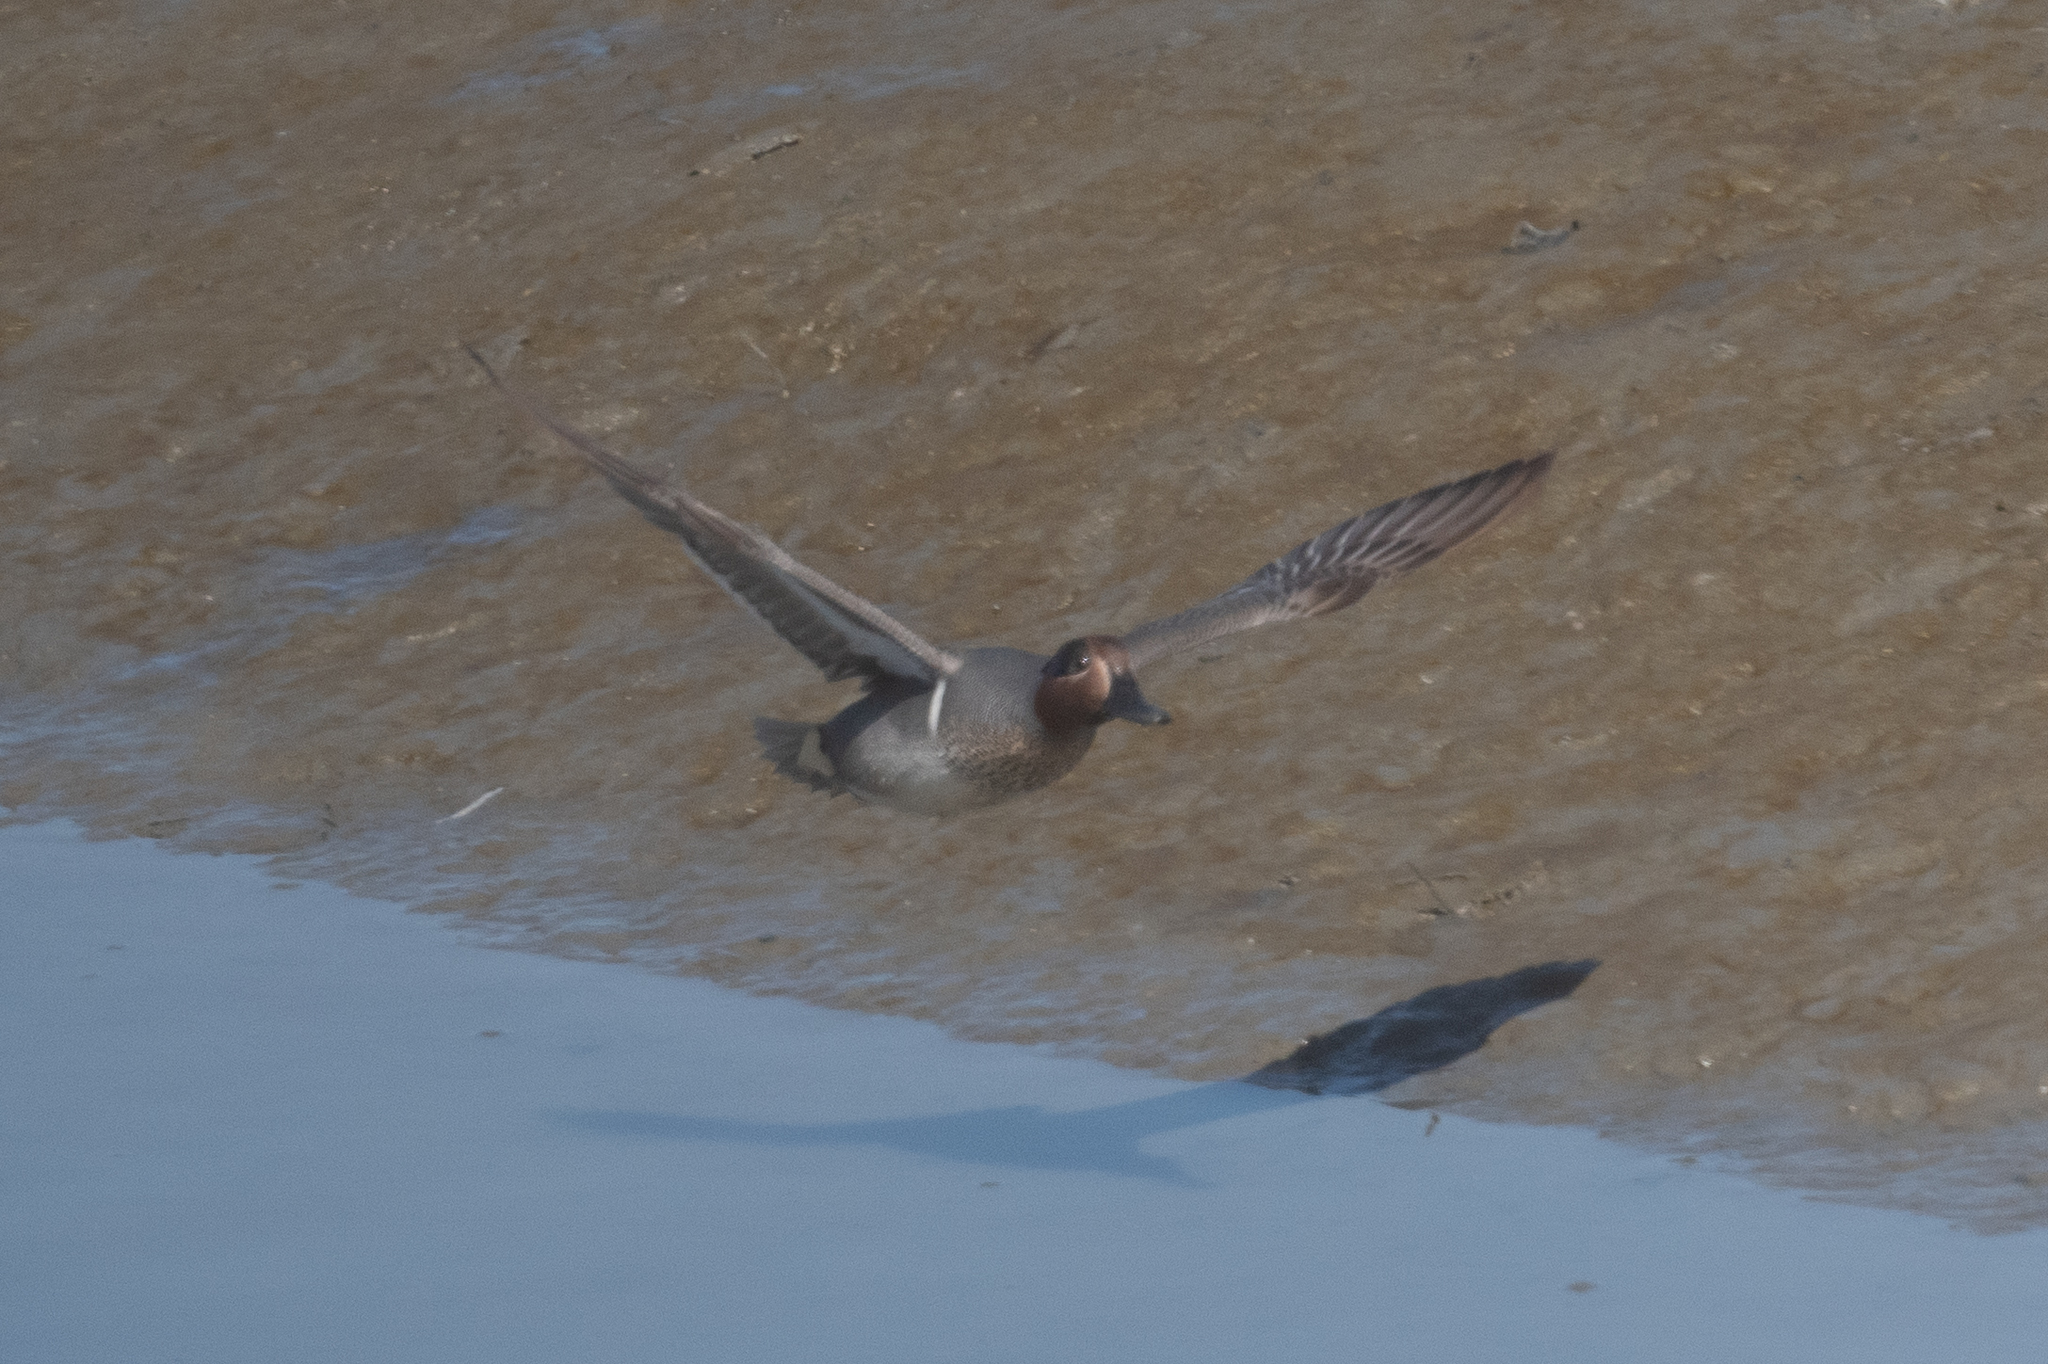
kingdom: Animalia
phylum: Chordata
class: Aves
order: Anseriformes
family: Anatidae
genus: Anas
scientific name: Anas crecca
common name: Eurasian teal
